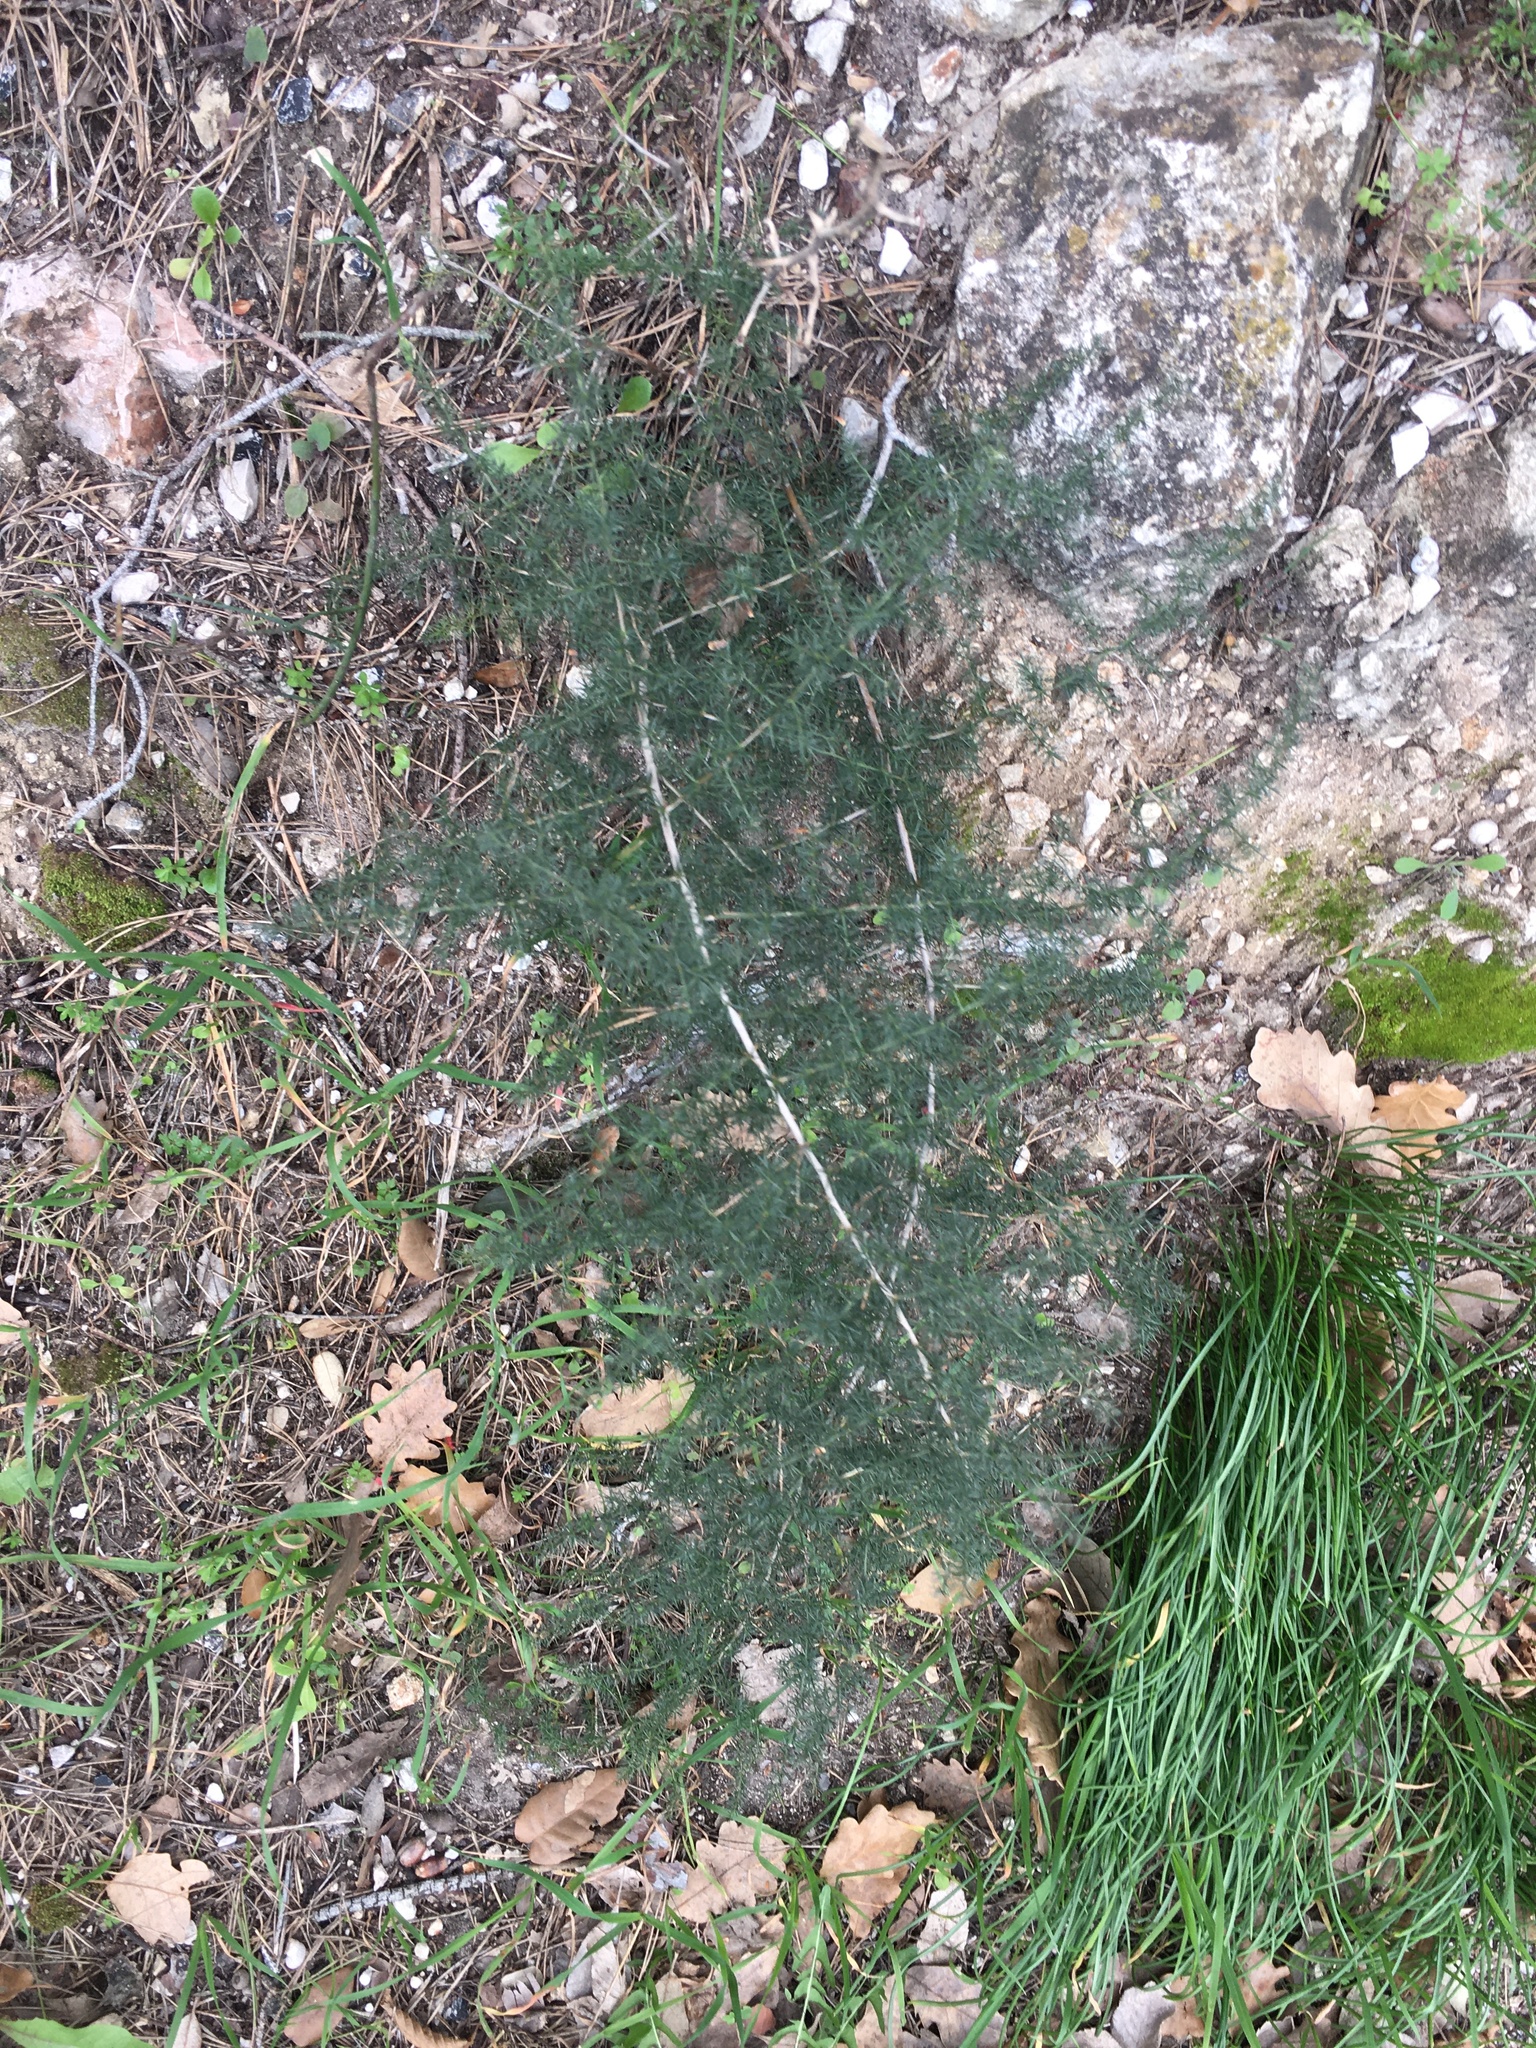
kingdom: Plantae
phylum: Tracheophyta
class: Liliopsida
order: Asparagales
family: Asparagaceae
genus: Asparagus
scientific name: Asparagus acutifolius
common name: Wild asparagus
